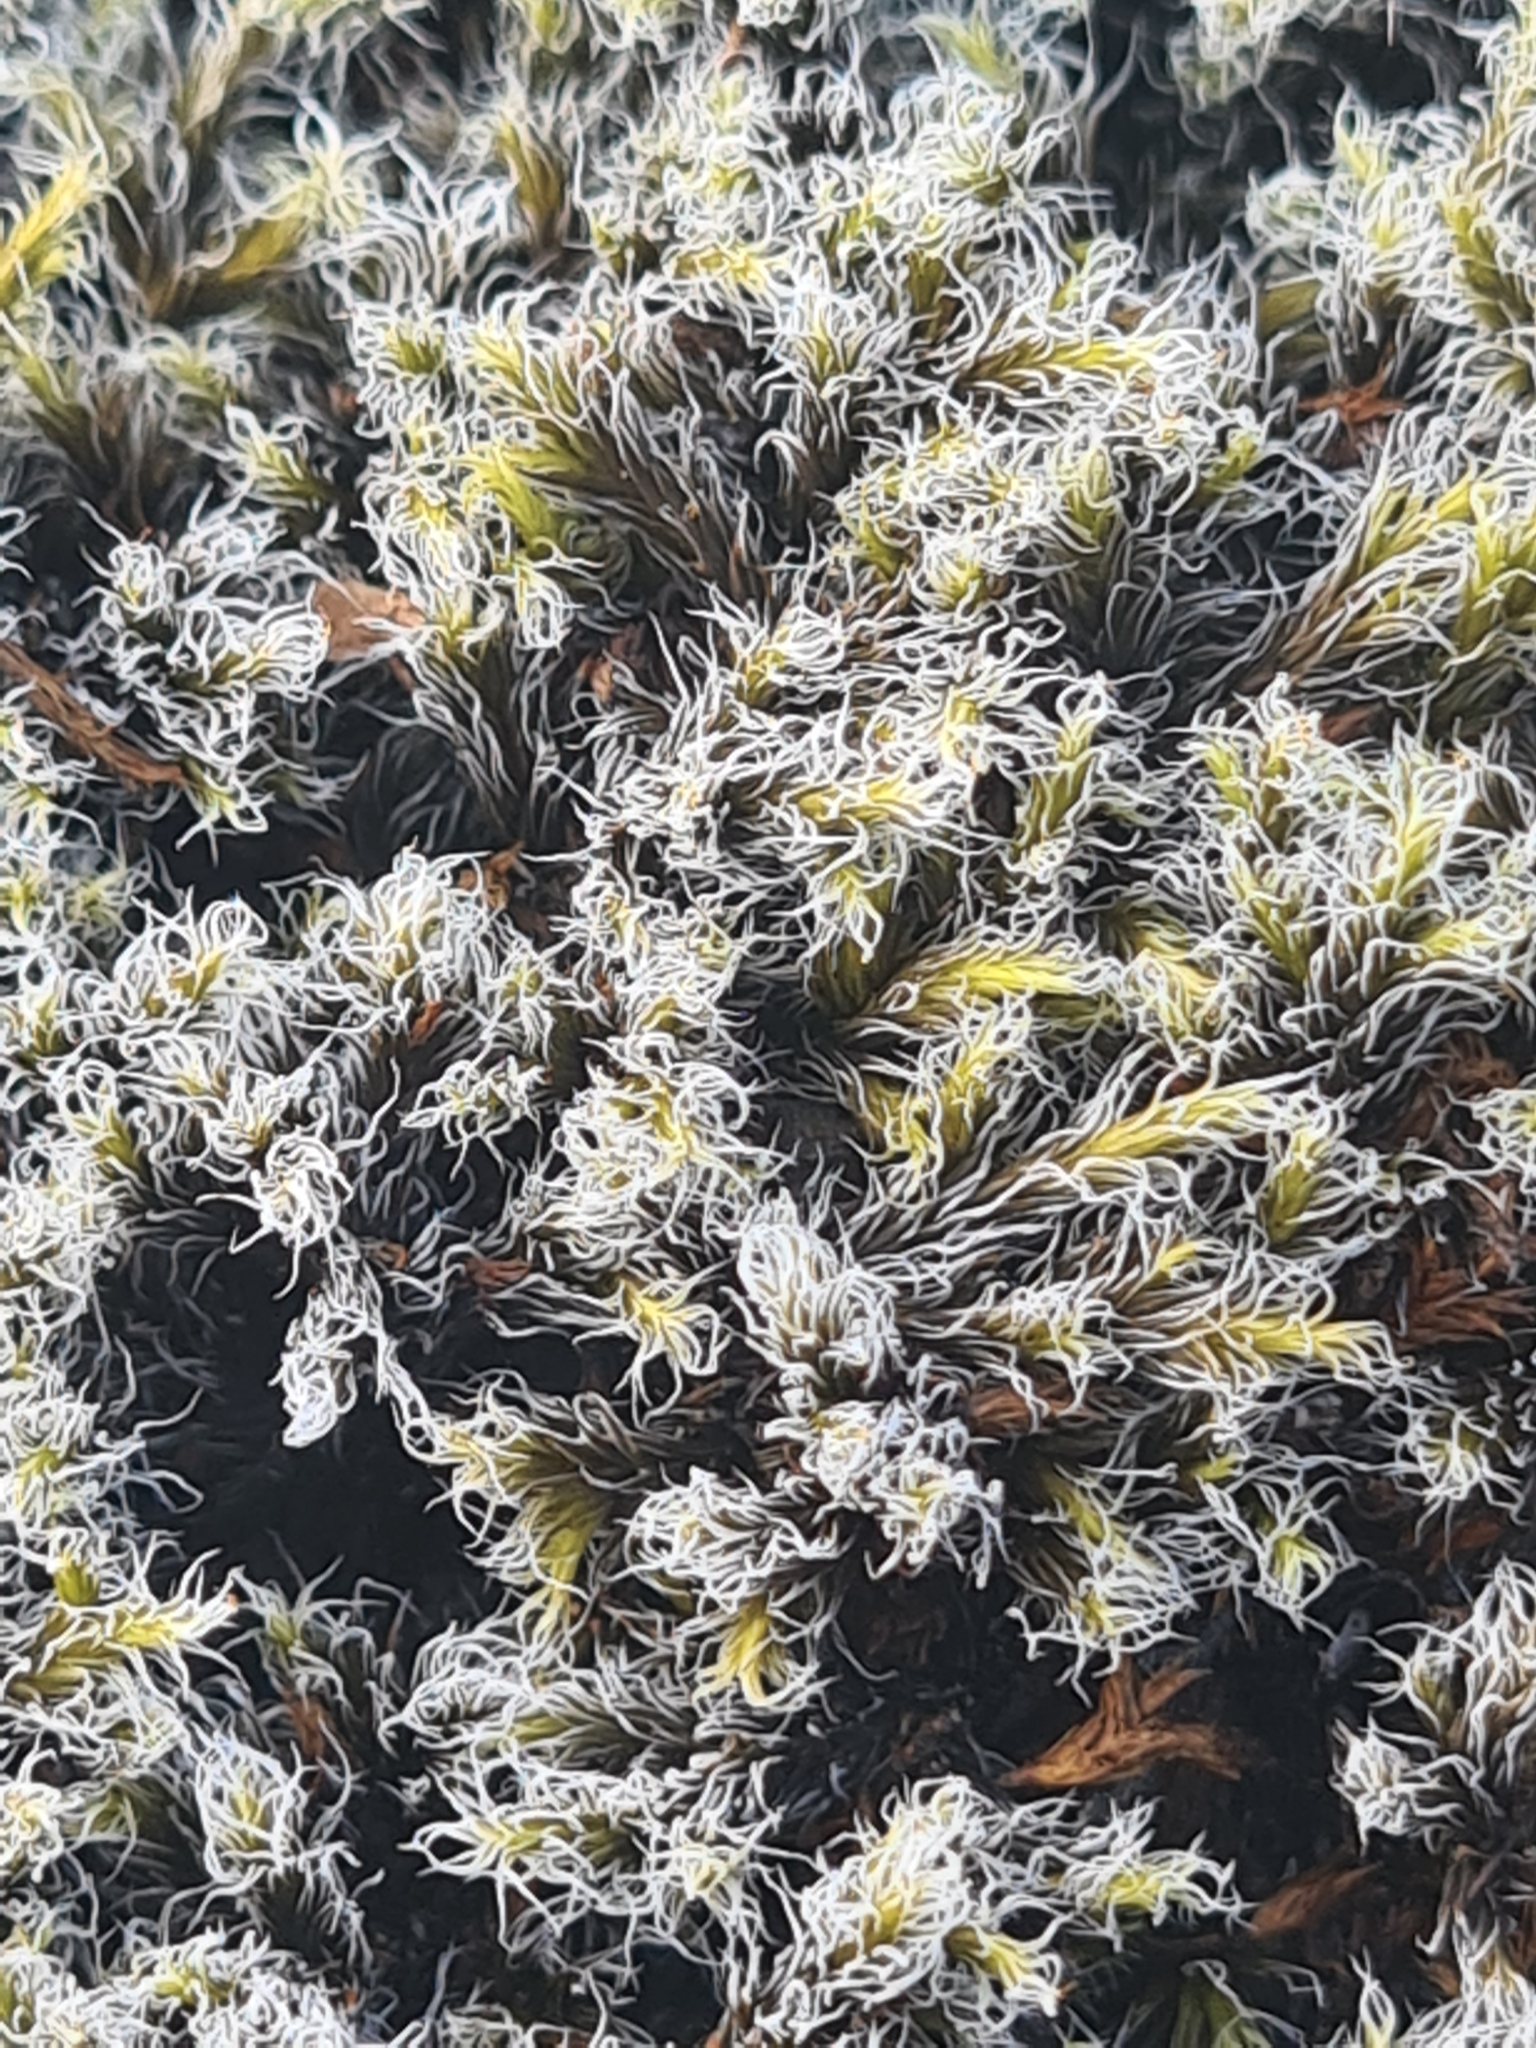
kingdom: Plantae
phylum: Bryophyta
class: Bryopsida
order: Grimmiales
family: Grimmiaceae
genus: Racomitrium
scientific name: Racomitrium lanuginosum
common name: Hoary rock moss
